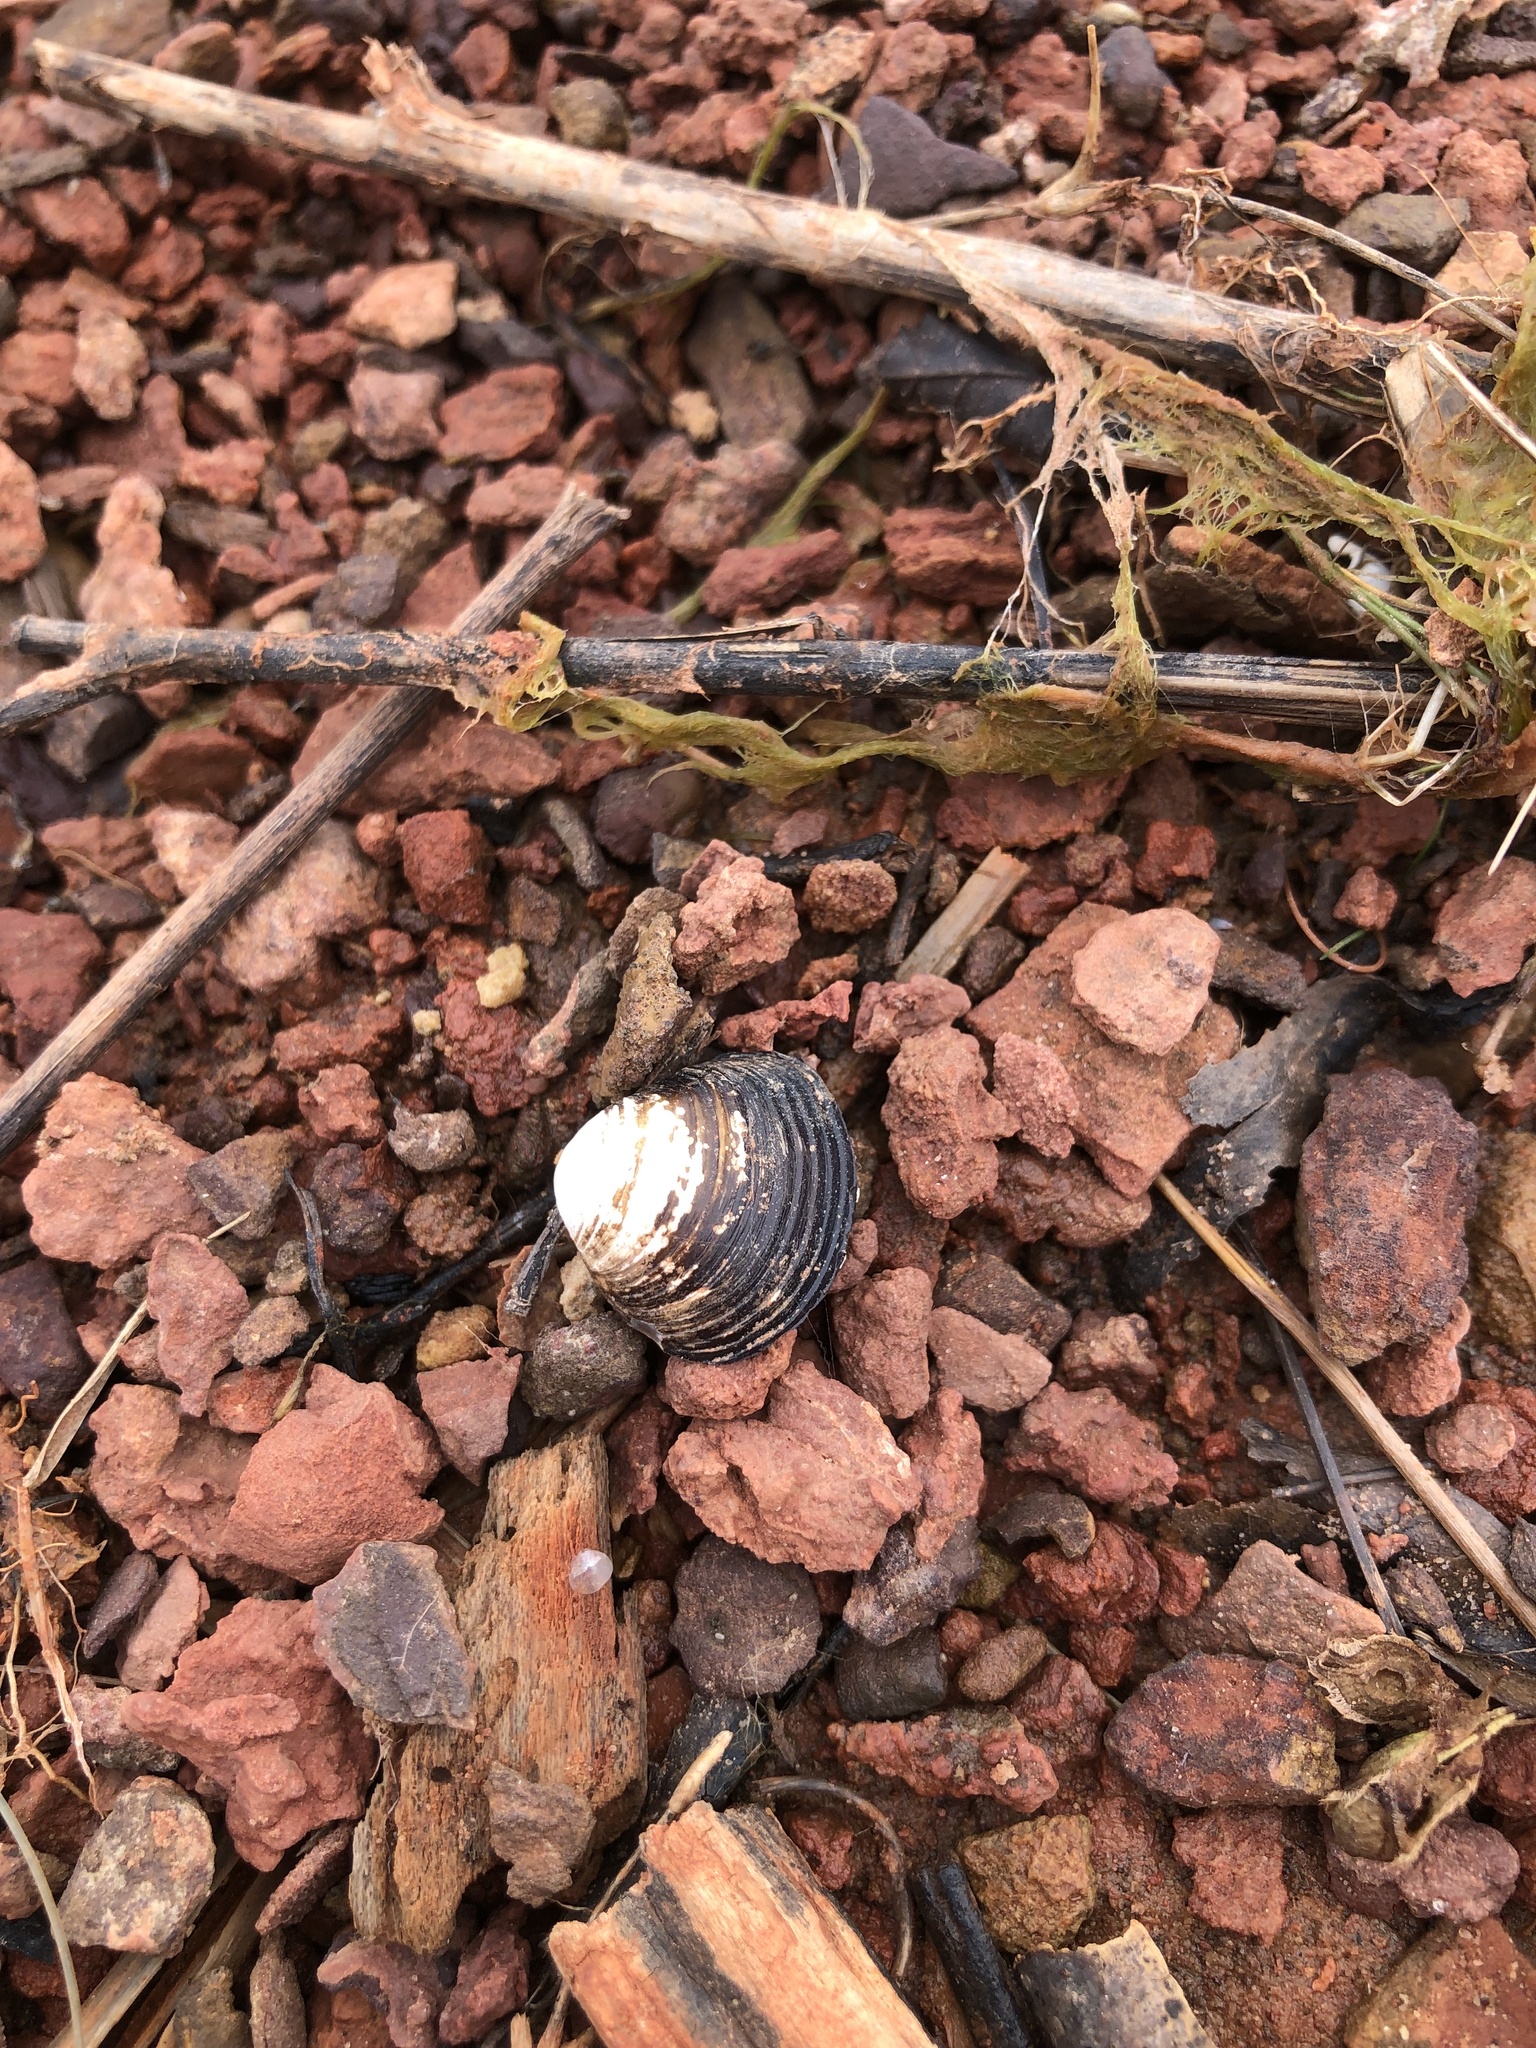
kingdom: Animalia
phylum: Mollusca
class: Bivalvia
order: Venerida
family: Cyrenidae
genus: Corbicula
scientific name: Corbicula fluminea
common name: Asian clam
